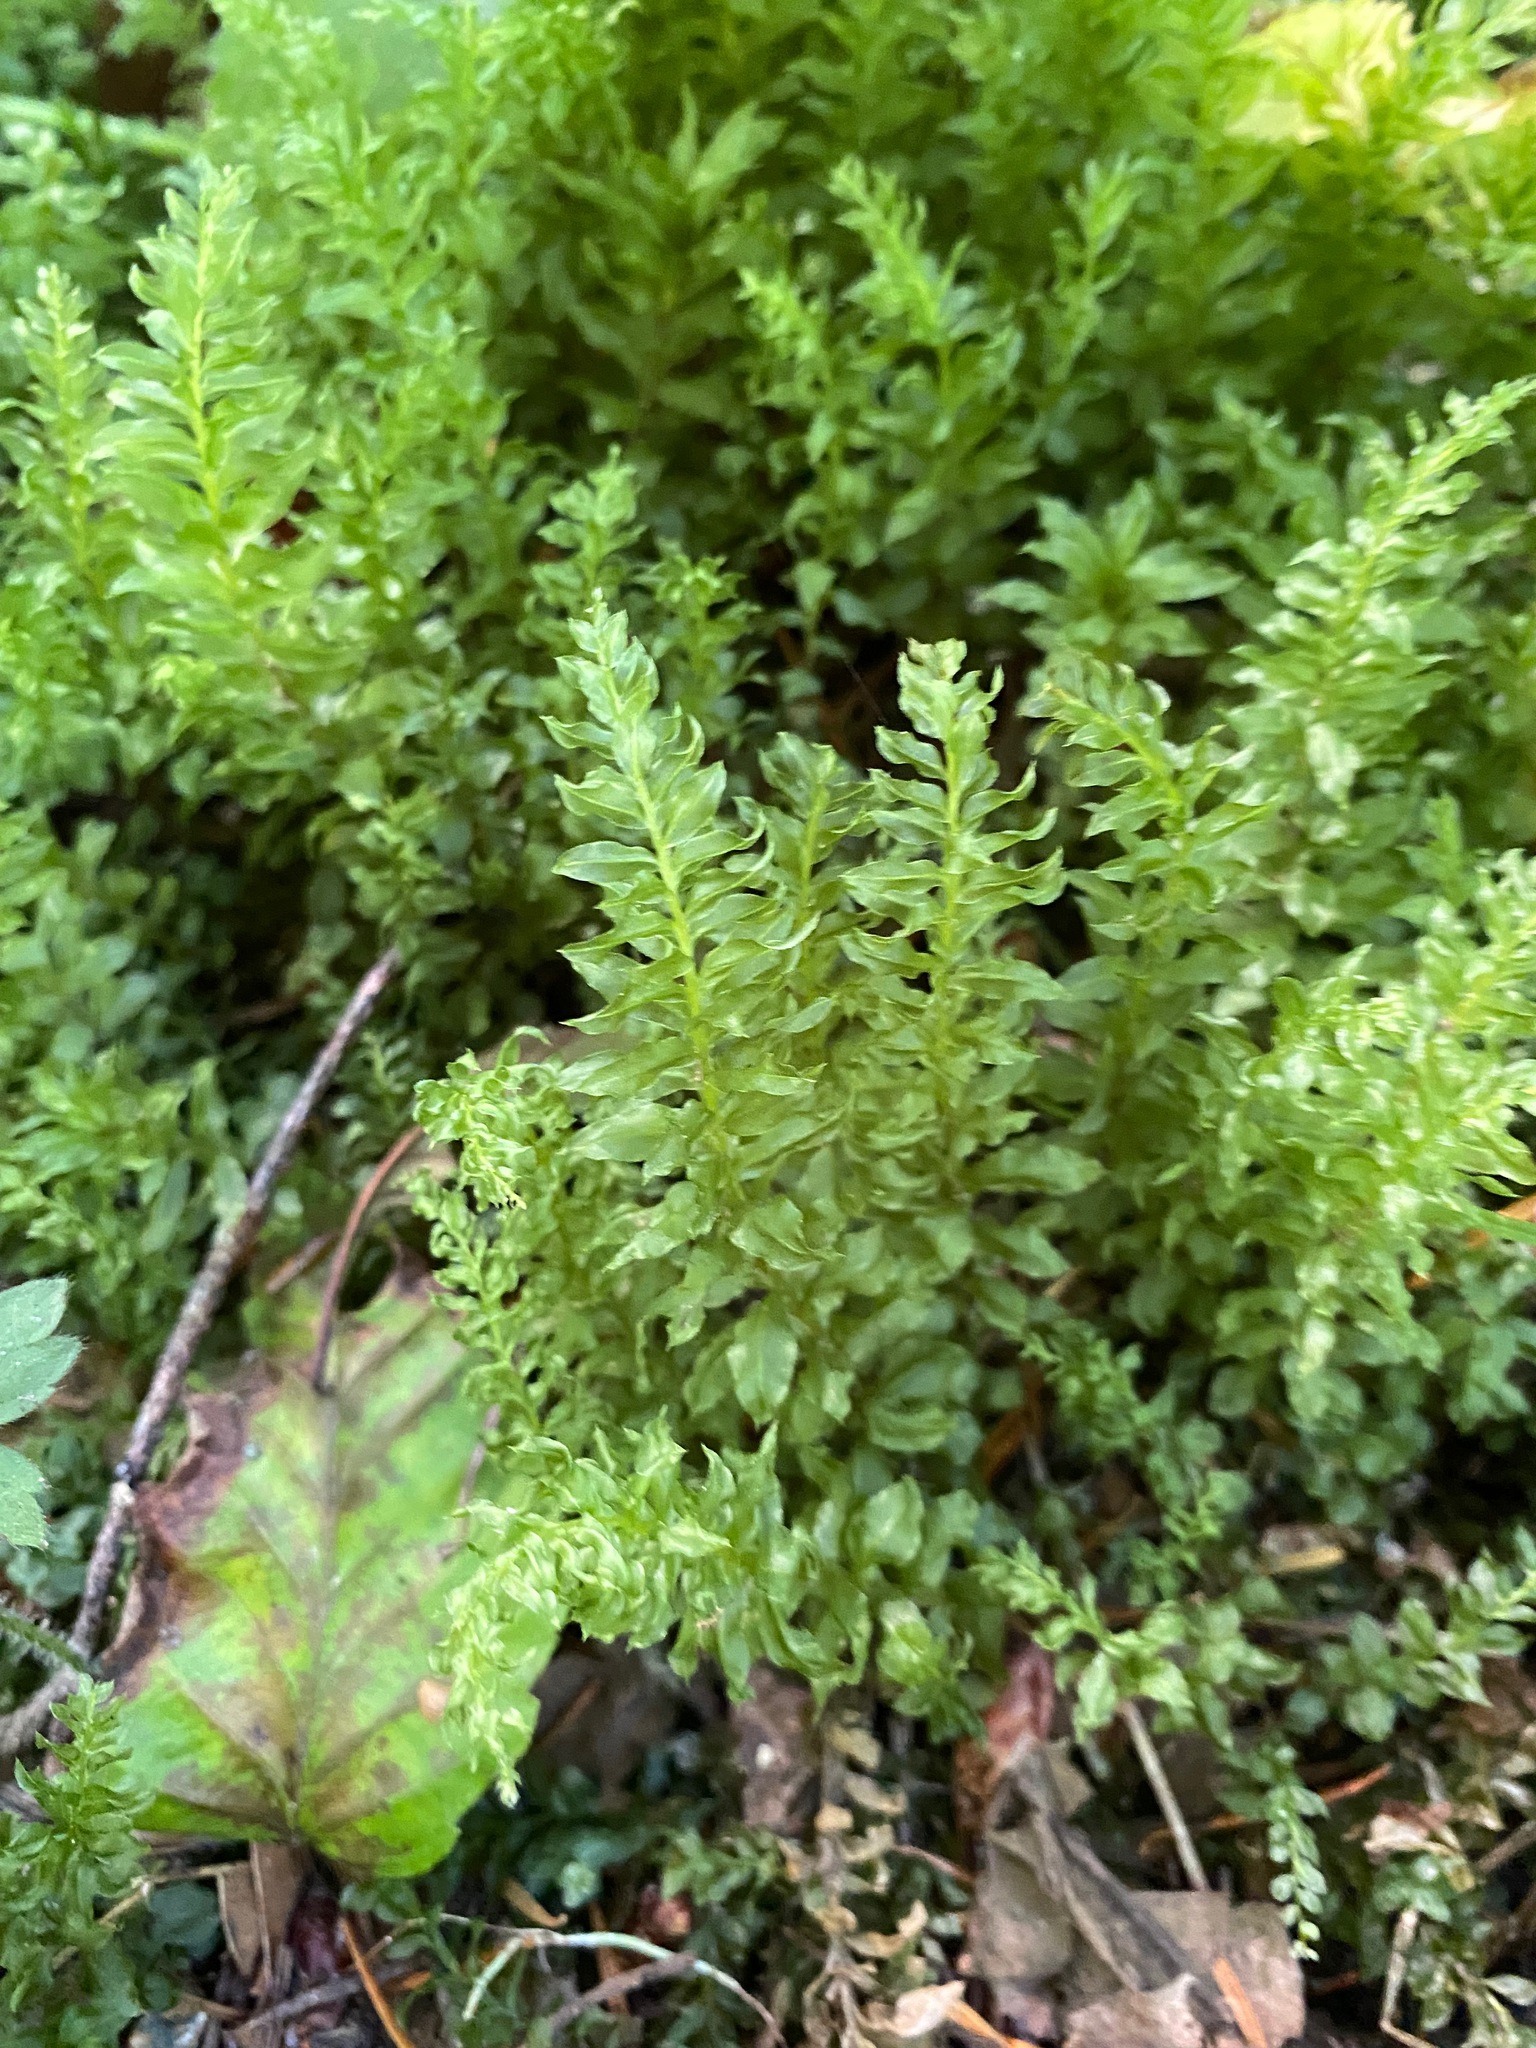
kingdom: Plantae
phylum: Bryophyta
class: Bryopsida
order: Bryales
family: Mniaceae
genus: Plagiomnium
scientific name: Plagiomnium insigne
